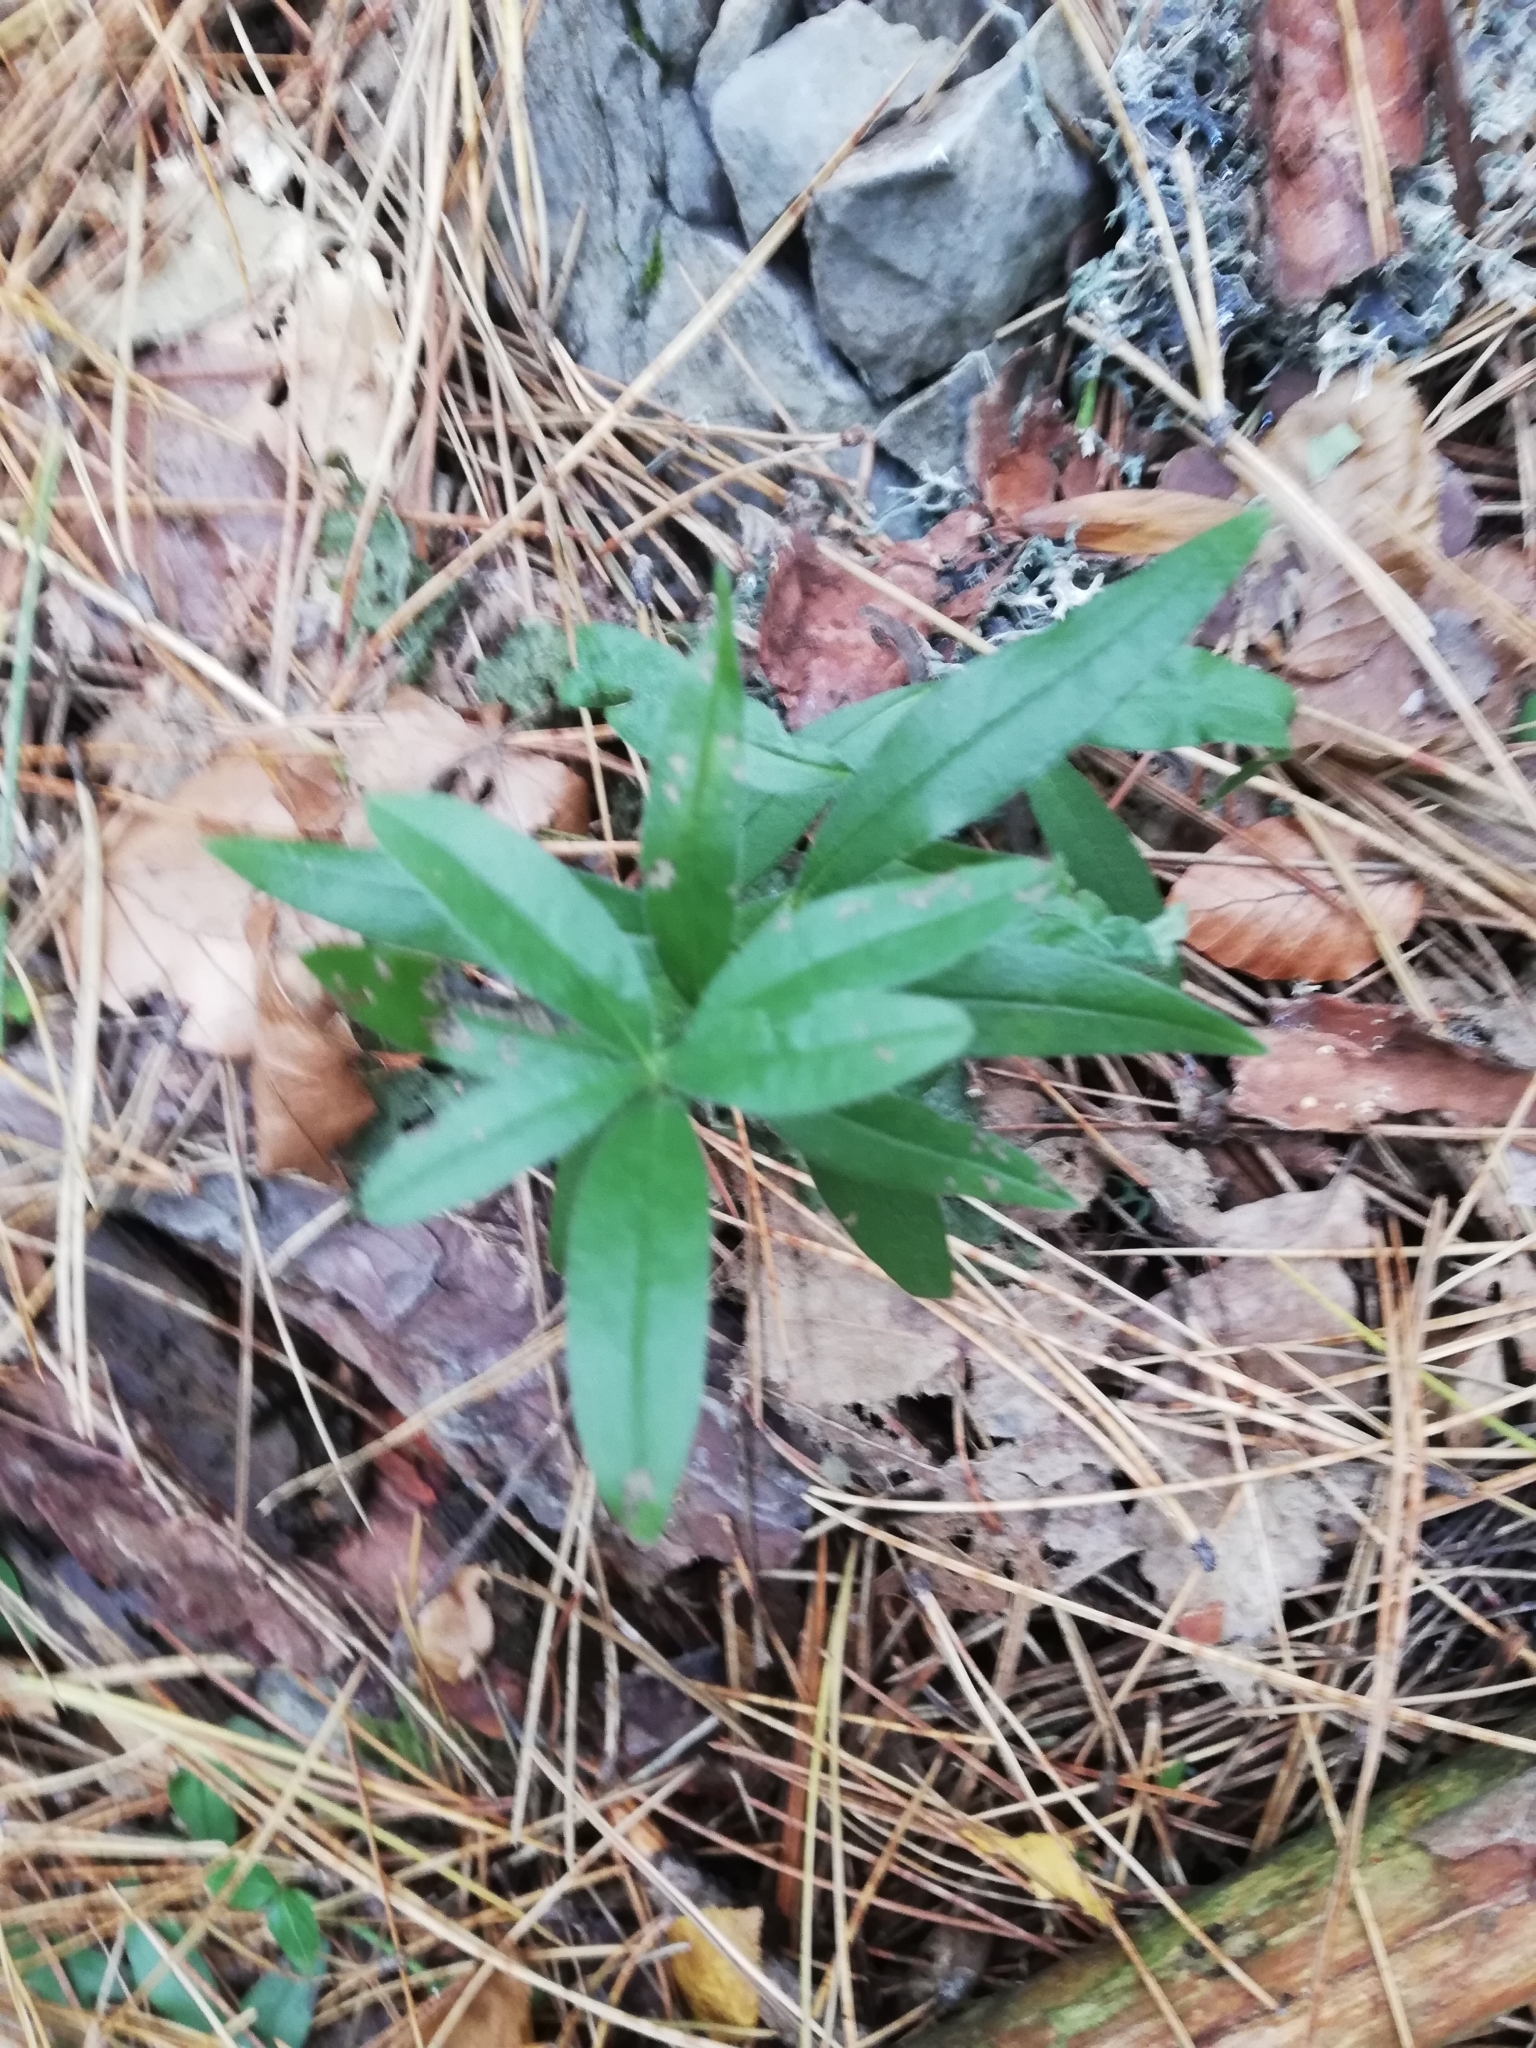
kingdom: Plantae
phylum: Tracheophyta
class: Magnoliopsida
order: Boraginales
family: Boraginaceae
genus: Aegonychon
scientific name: Aegonychon purpurocaeruleum
